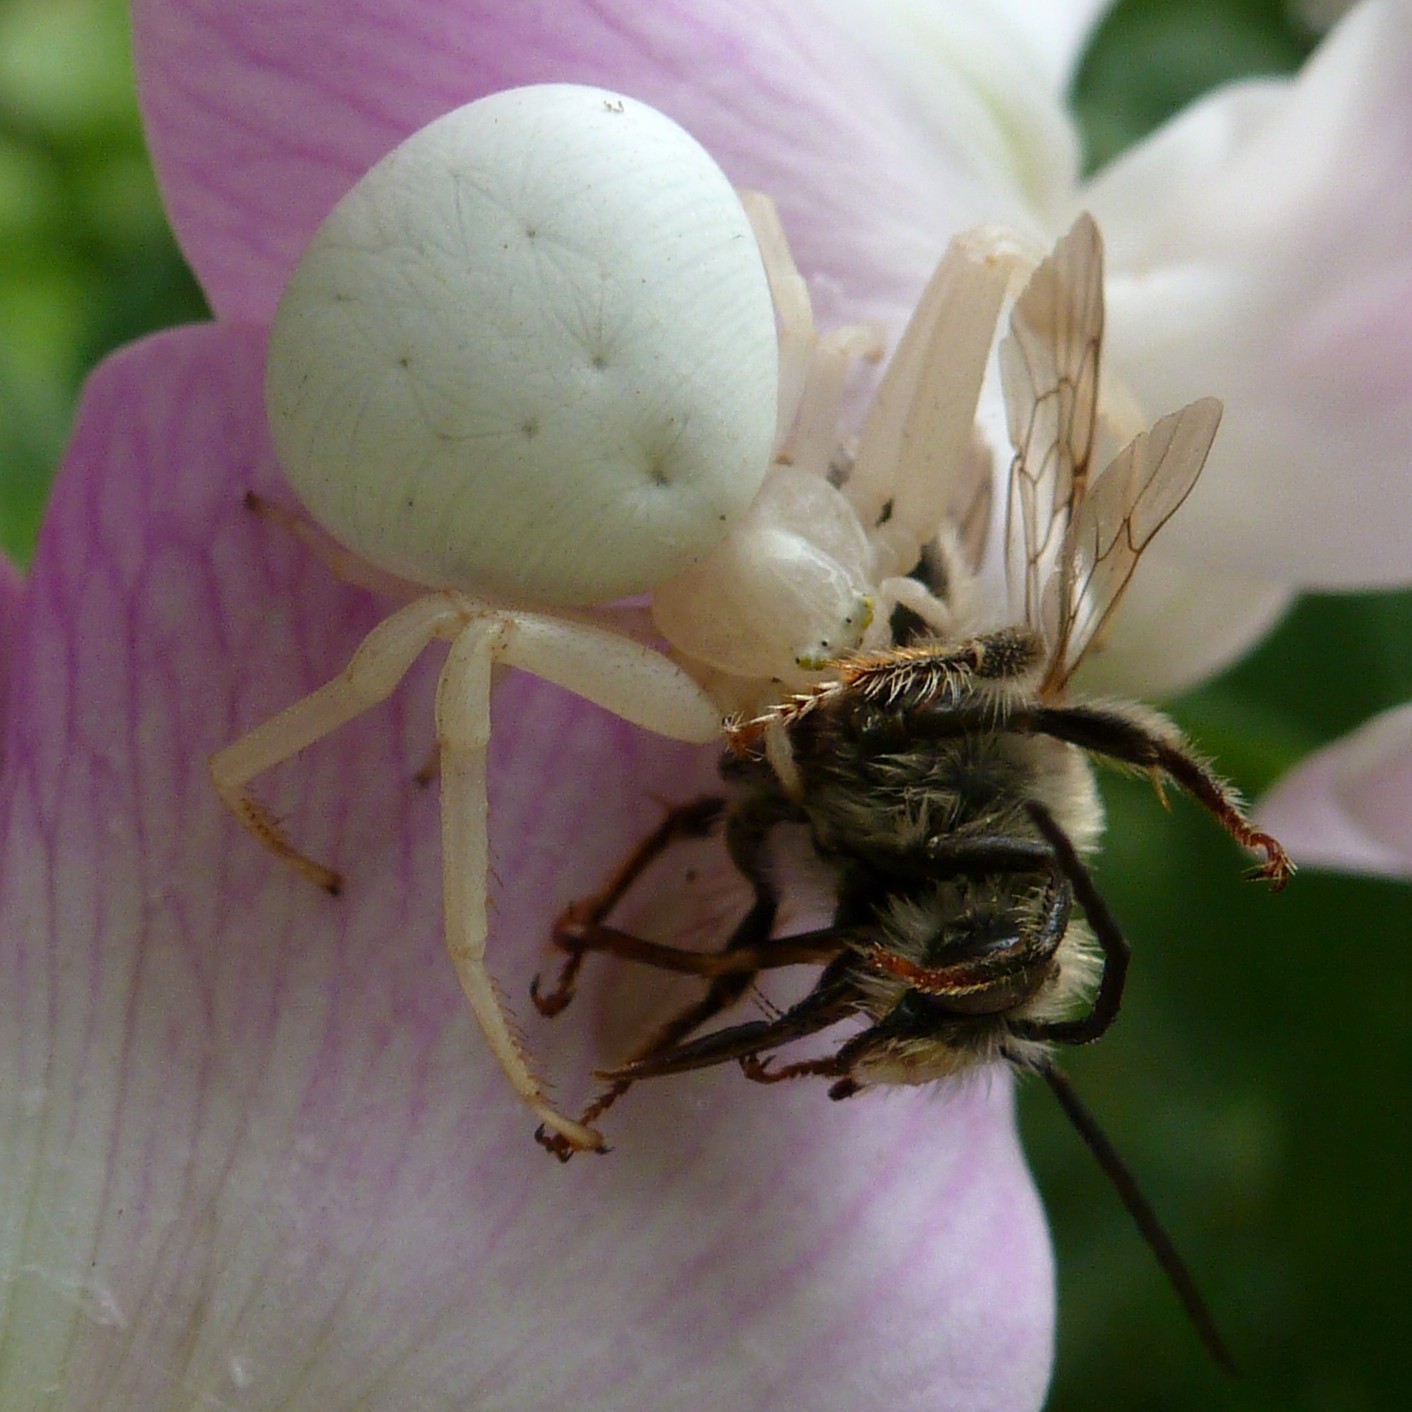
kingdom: Animalia
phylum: Arthropoda
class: Arachnida
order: Araneae
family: Thomisidae
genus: Misumena
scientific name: Misumena vatia
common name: Goldenrod crab spider
